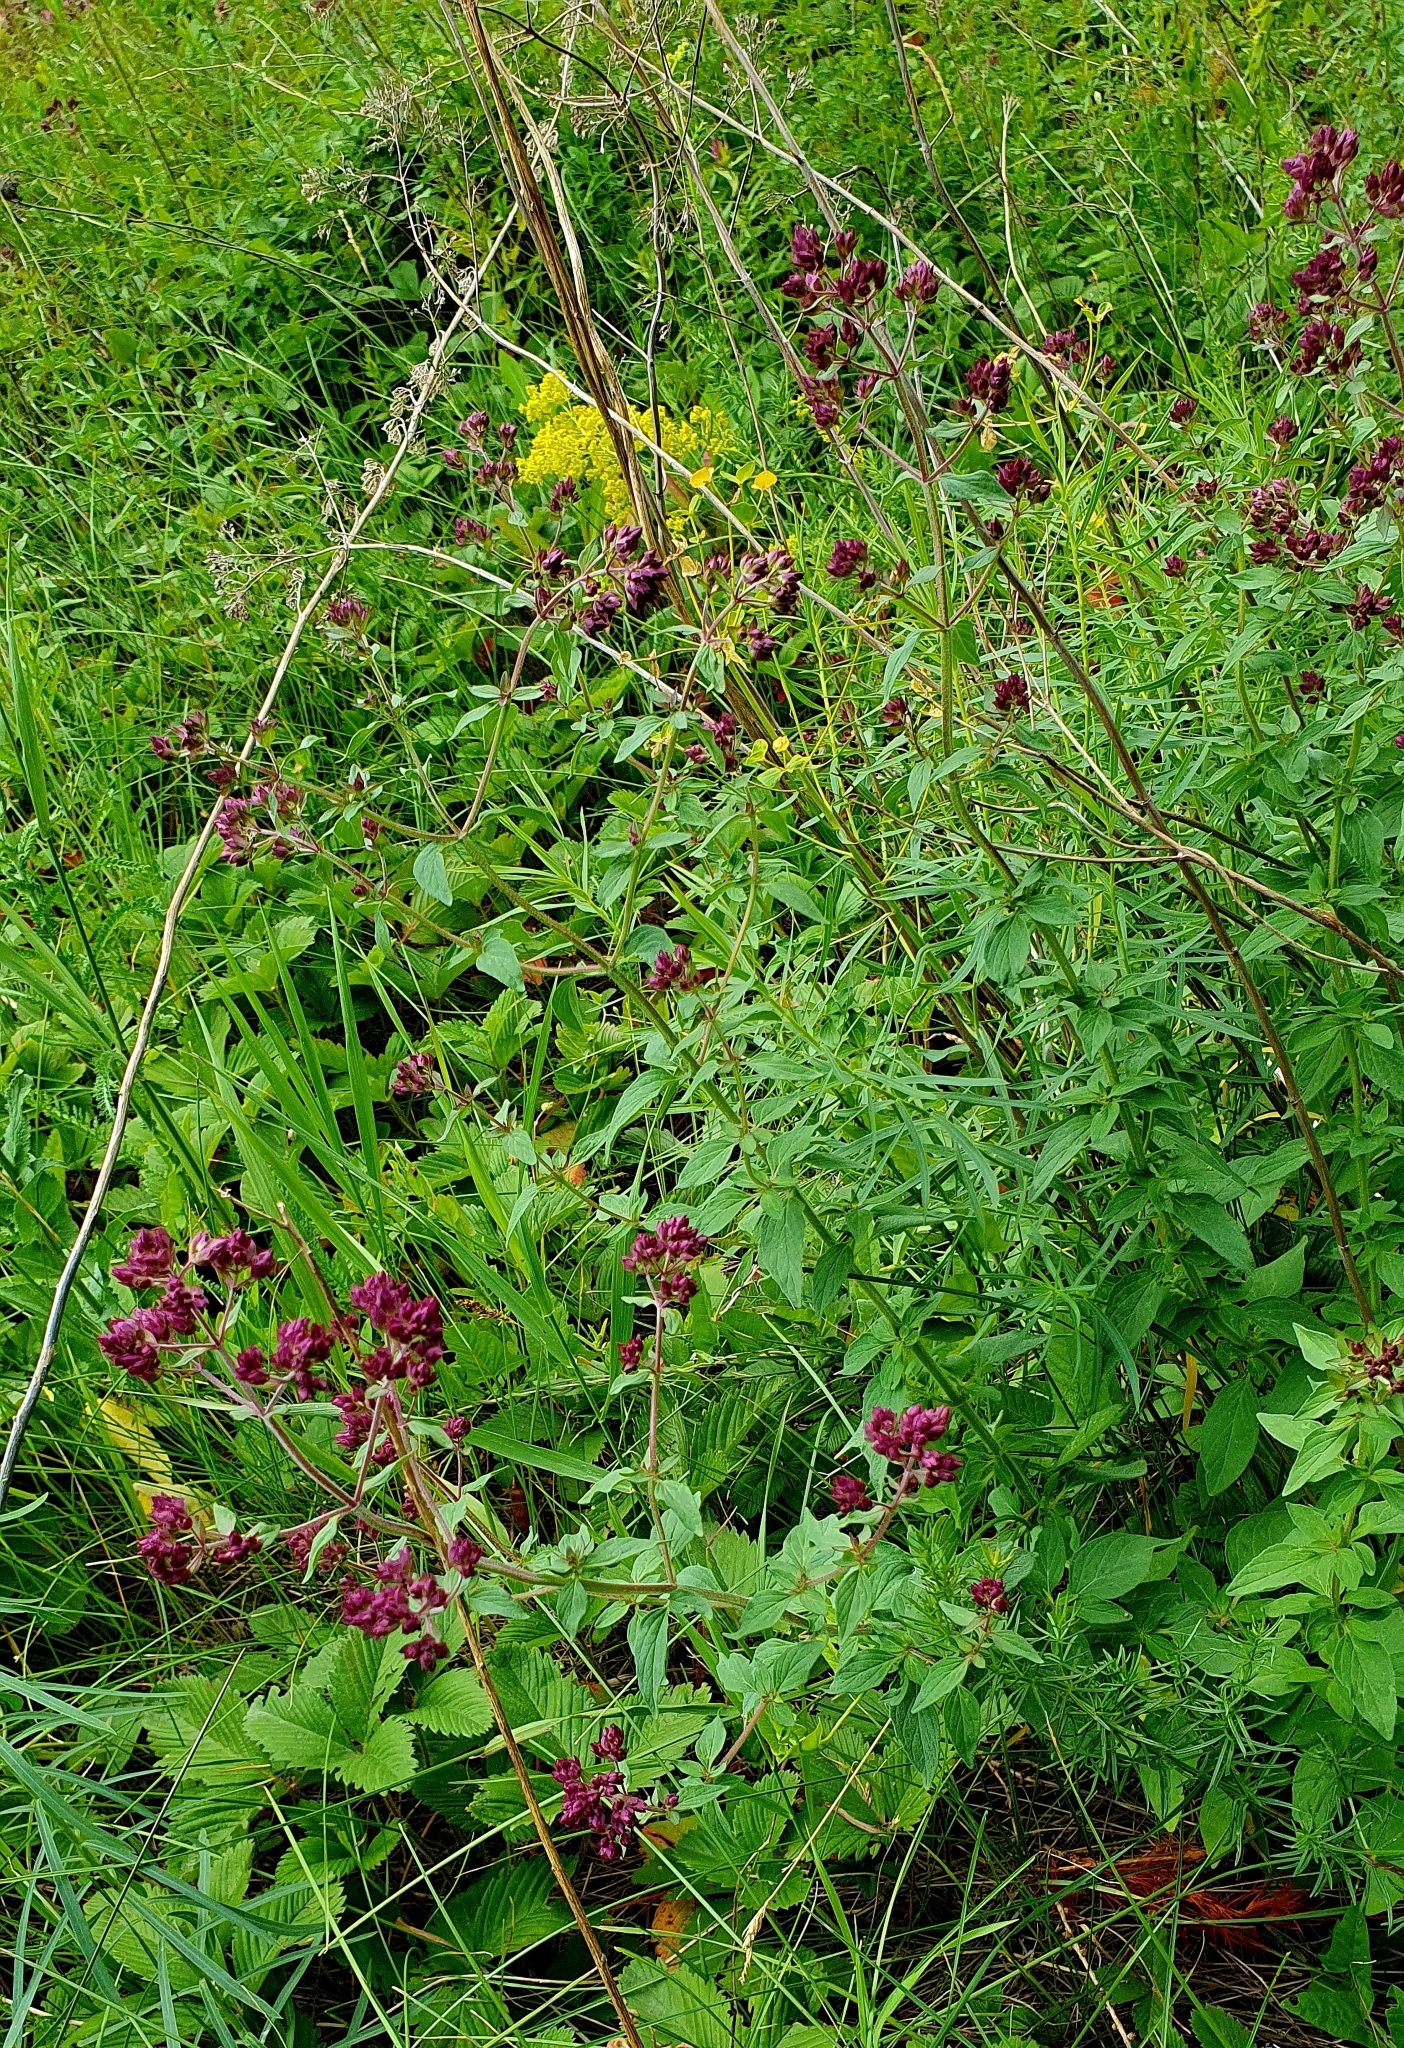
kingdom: Plantae
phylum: Tracheophyta
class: Magnoliopsida
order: Lamiales
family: Lamiaceae
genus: Origanum
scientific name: Origanum vulgare
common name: Wild marjoram
